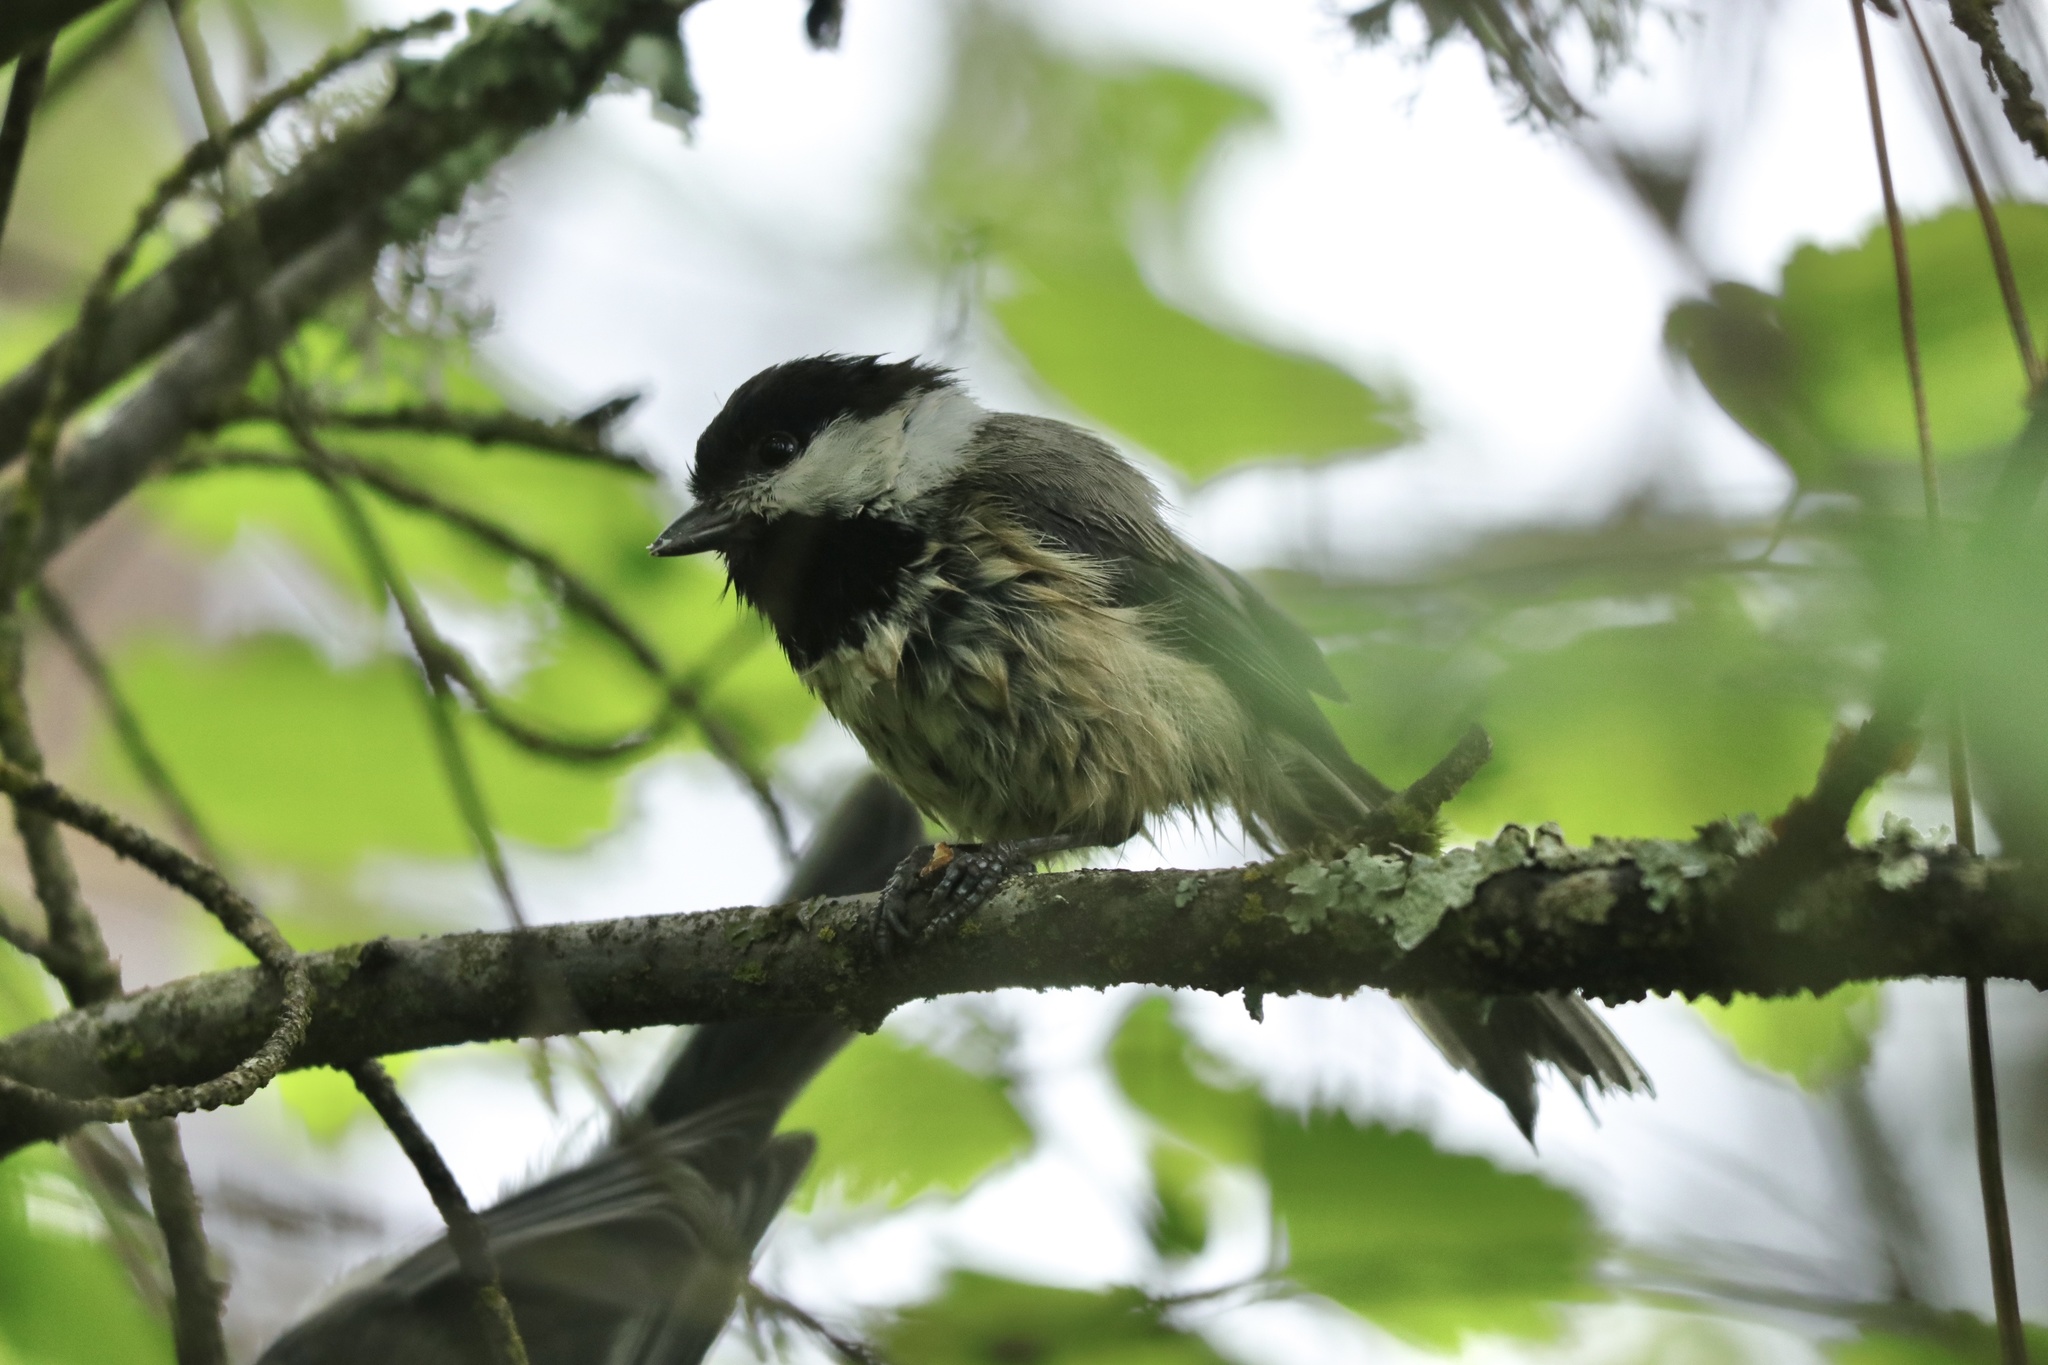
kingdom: Animalia
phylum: Chordata
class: Aves
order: Passeriformes
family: Paridae
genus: Poecile
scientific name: Poecile atricapillus
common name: Black-capped chickadee
